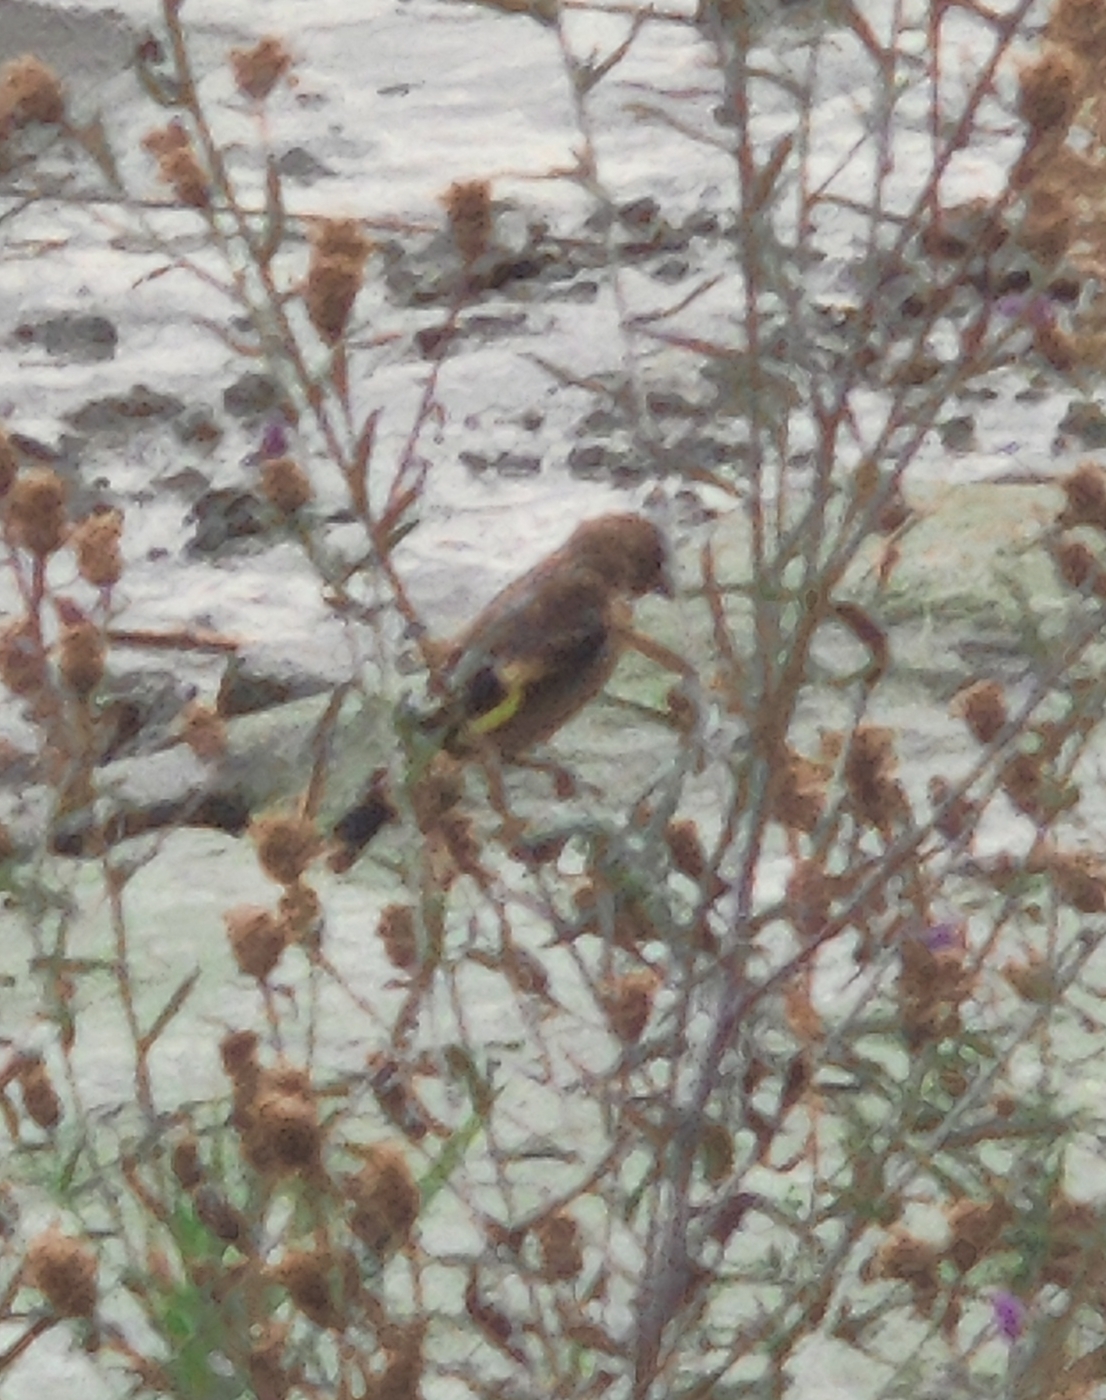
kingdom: Animalia
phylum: Chordata
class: Aves
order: Passeriformes
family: Fringillidae
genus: Carduelis
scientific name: Carduelis carduelis
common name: European goldfinch
